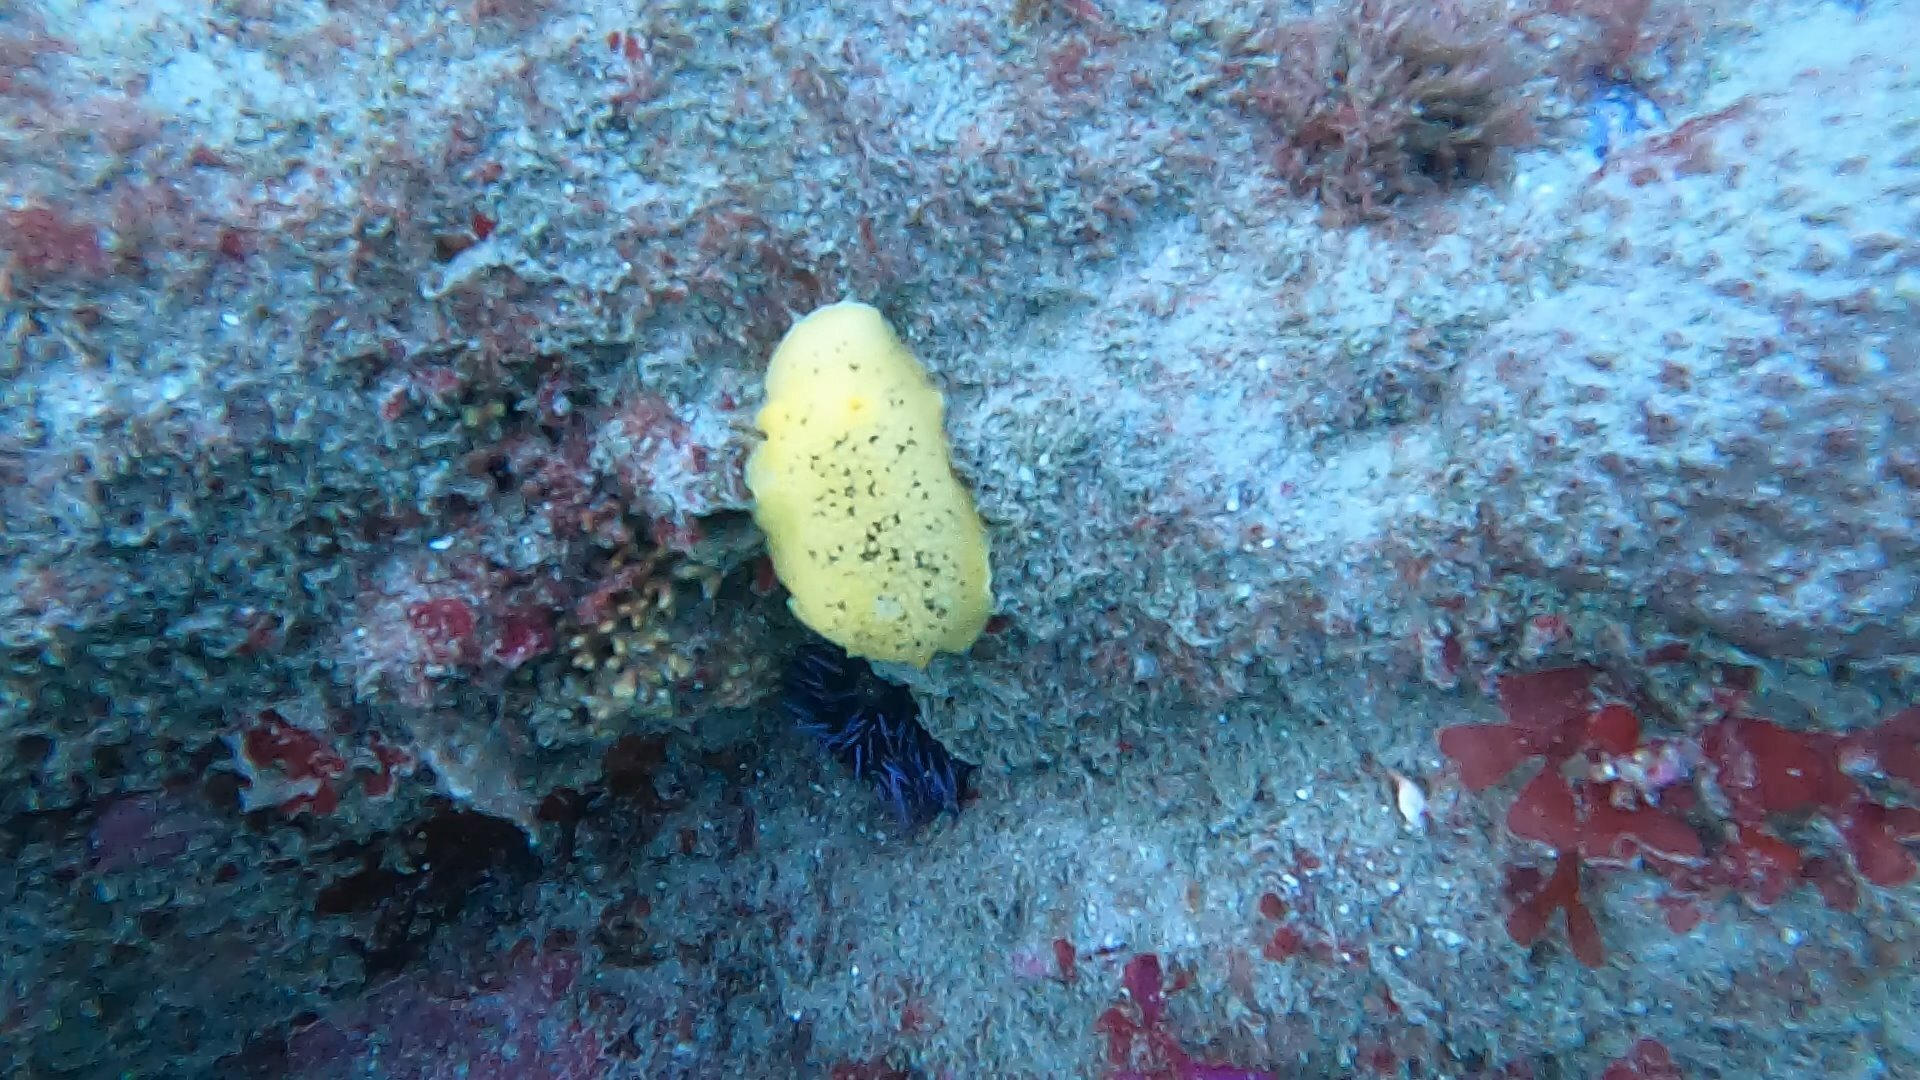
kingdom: Animalia
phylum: Mollusca
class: Gastropoda
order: Nudibranchia
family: Discodorididae
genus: Peltodoris
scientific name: Peltodoris nobilis
